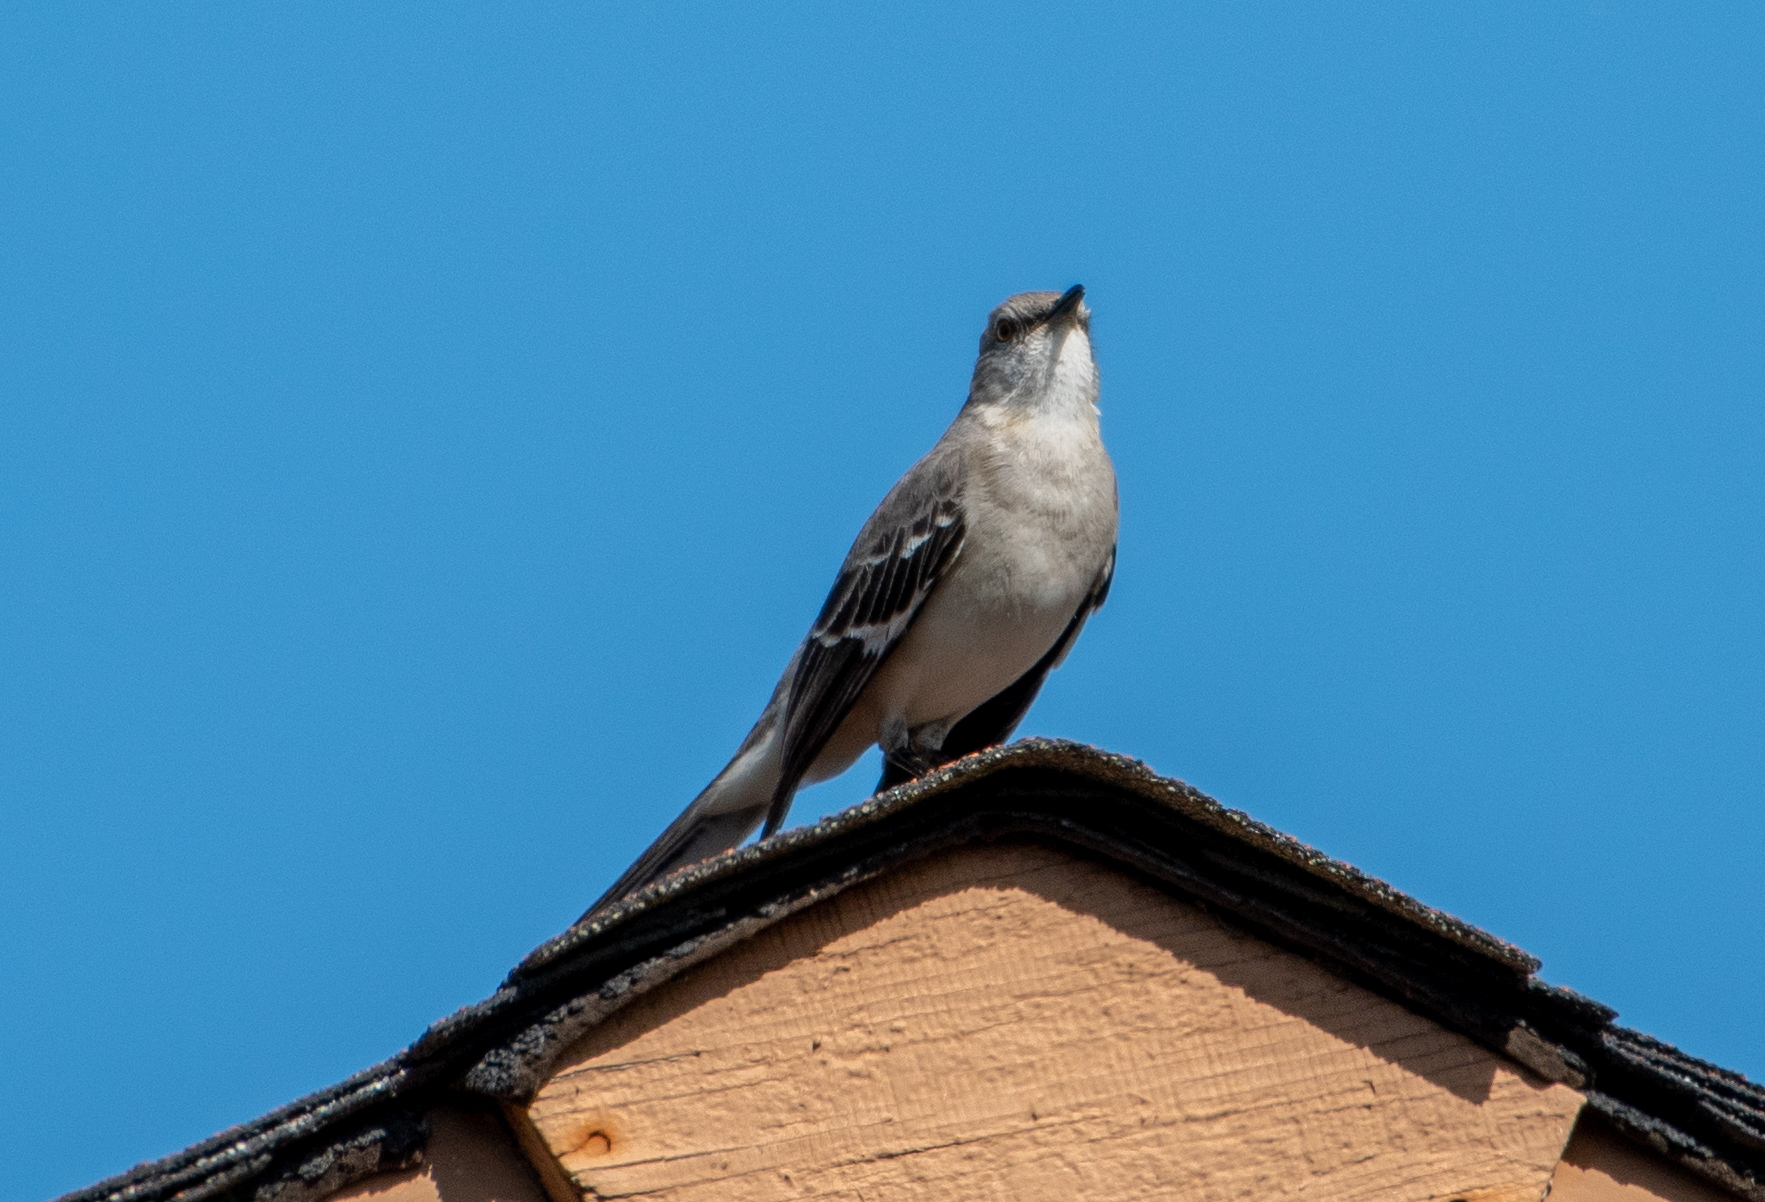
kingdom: Animalia
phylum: Chordata
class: Aves
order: Passeriformes
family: Mimidae
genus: Mimus
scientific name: Mimus polyglottos
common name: Northern mockingbird
